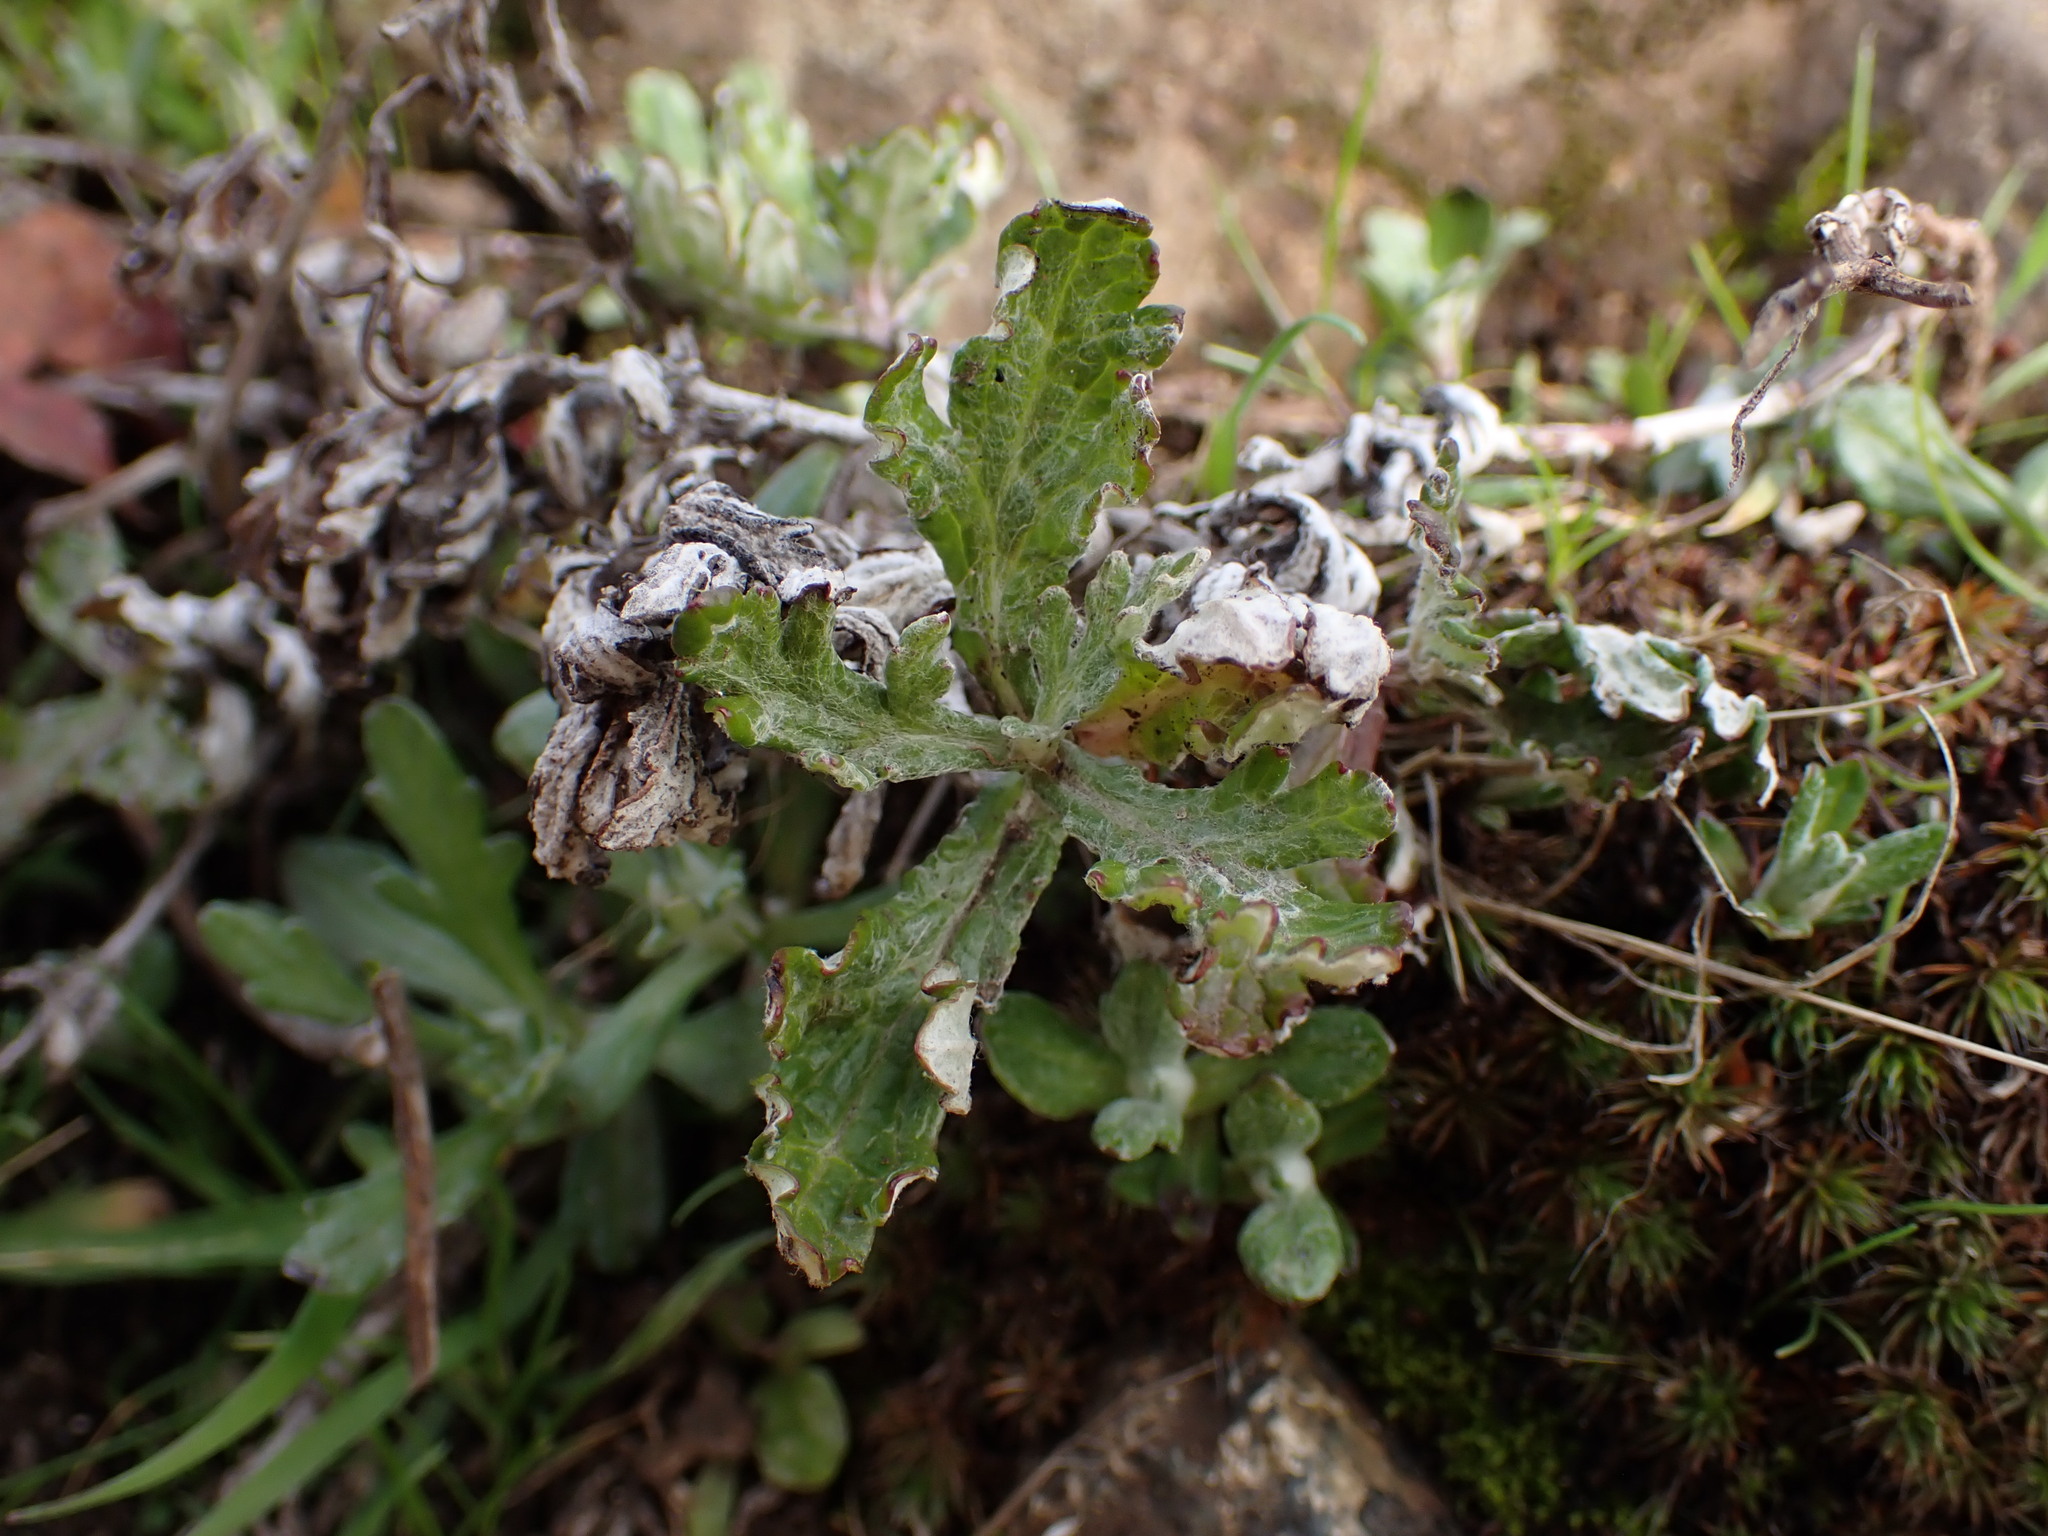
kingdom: Plantae
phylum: Tracheophyta
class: Magnoliopsida
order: Asterales
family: Asteraceae
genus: Eriophyllum
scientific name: Eriophyllum lanatum
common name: Common woolly-sunflower
